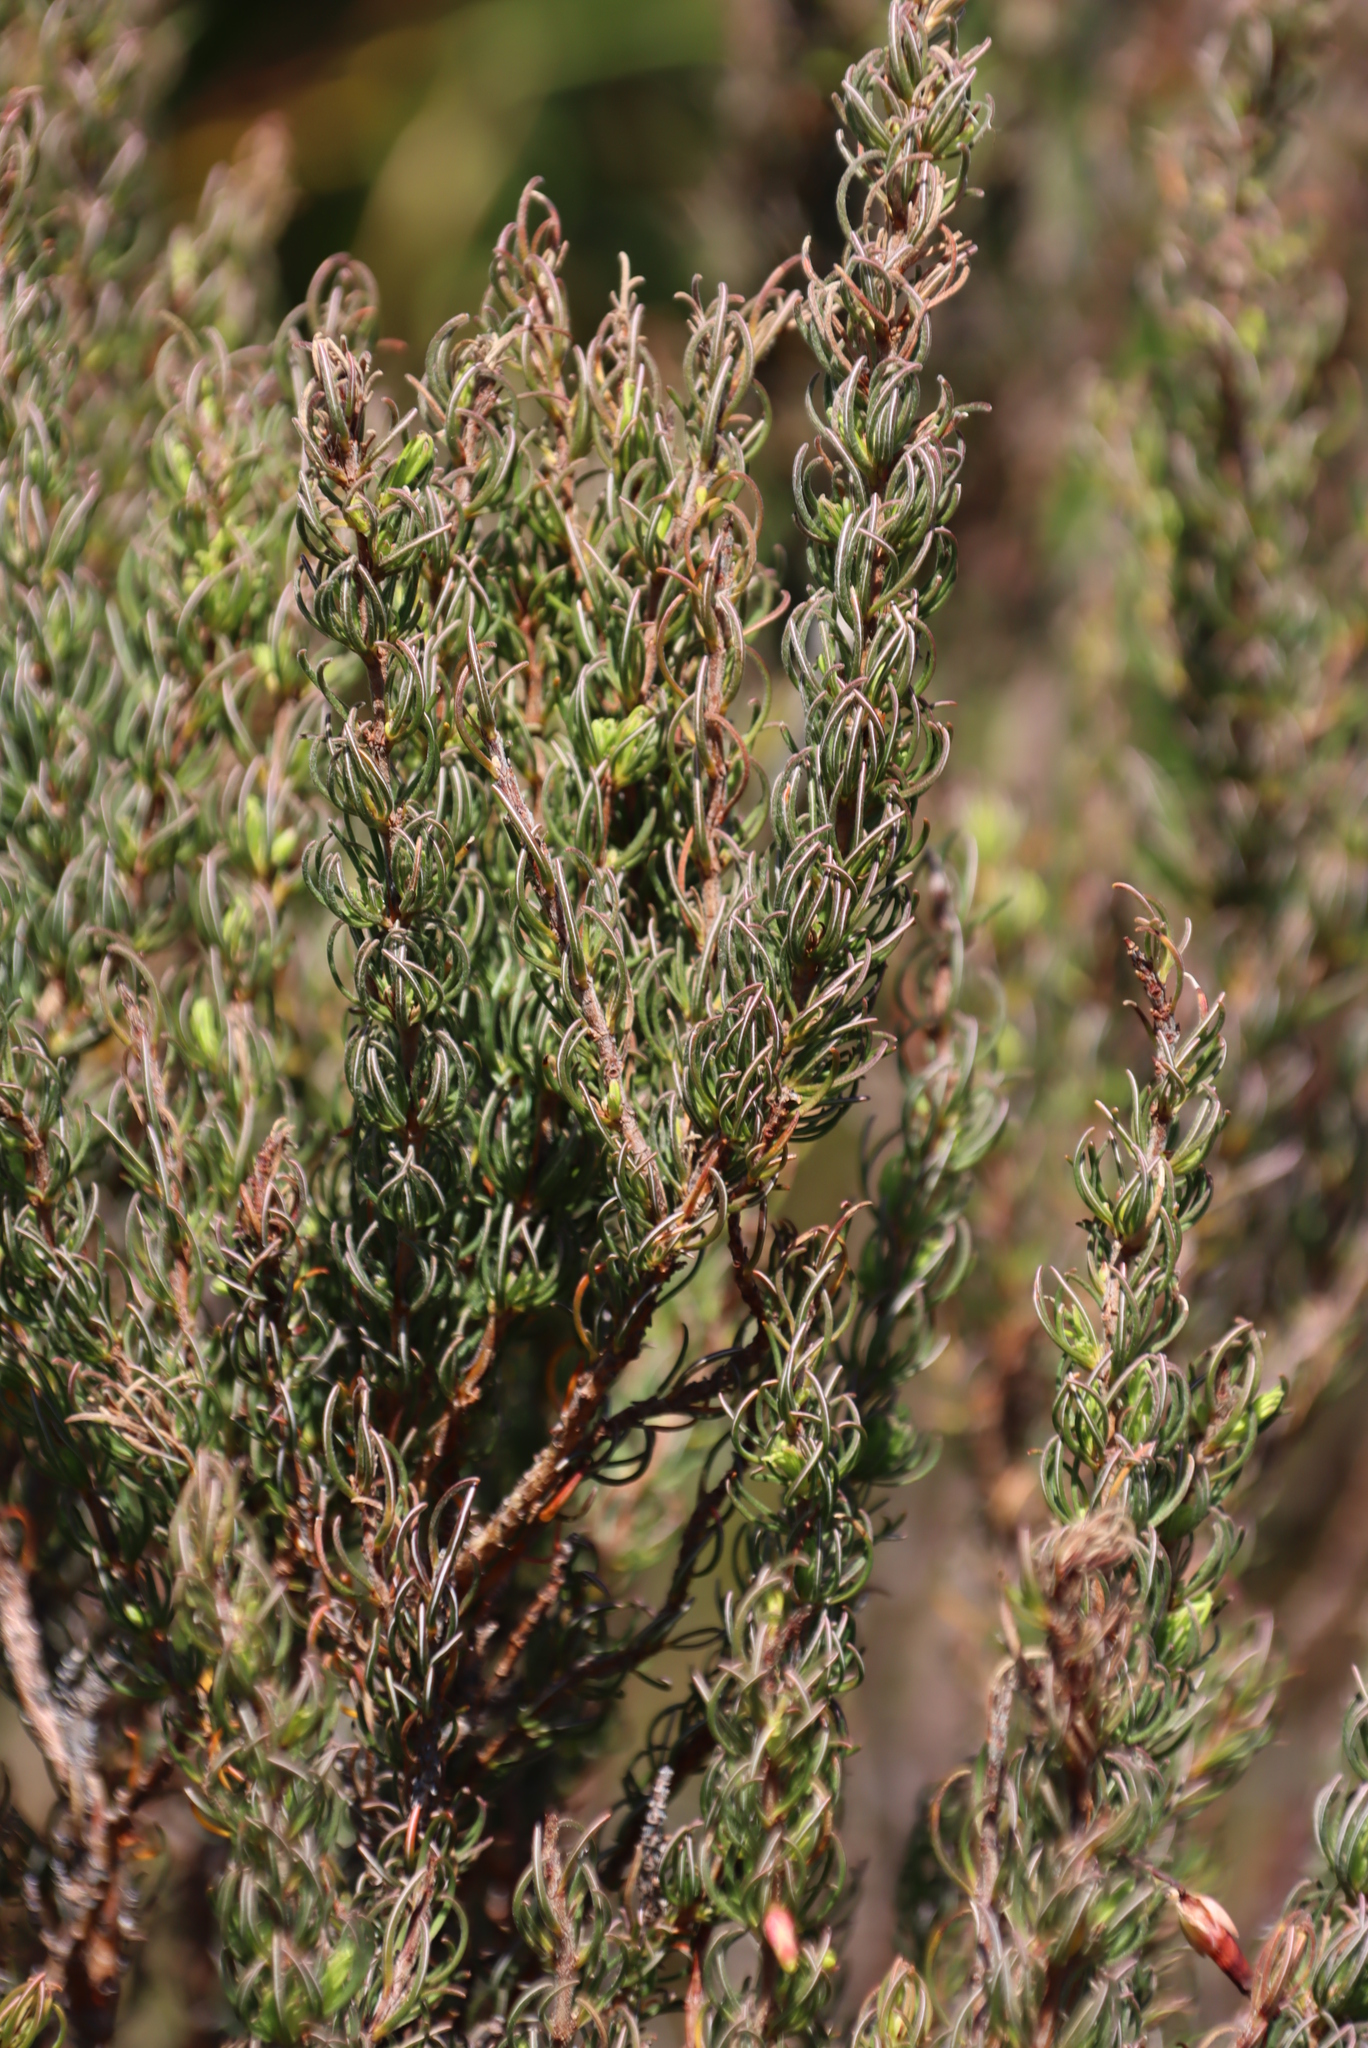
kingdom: Plantae
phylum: Tracheophyta
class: Magnoliopsida
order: Ericales
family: Ericaceae
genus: Erica
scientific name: Erica plukenetii
